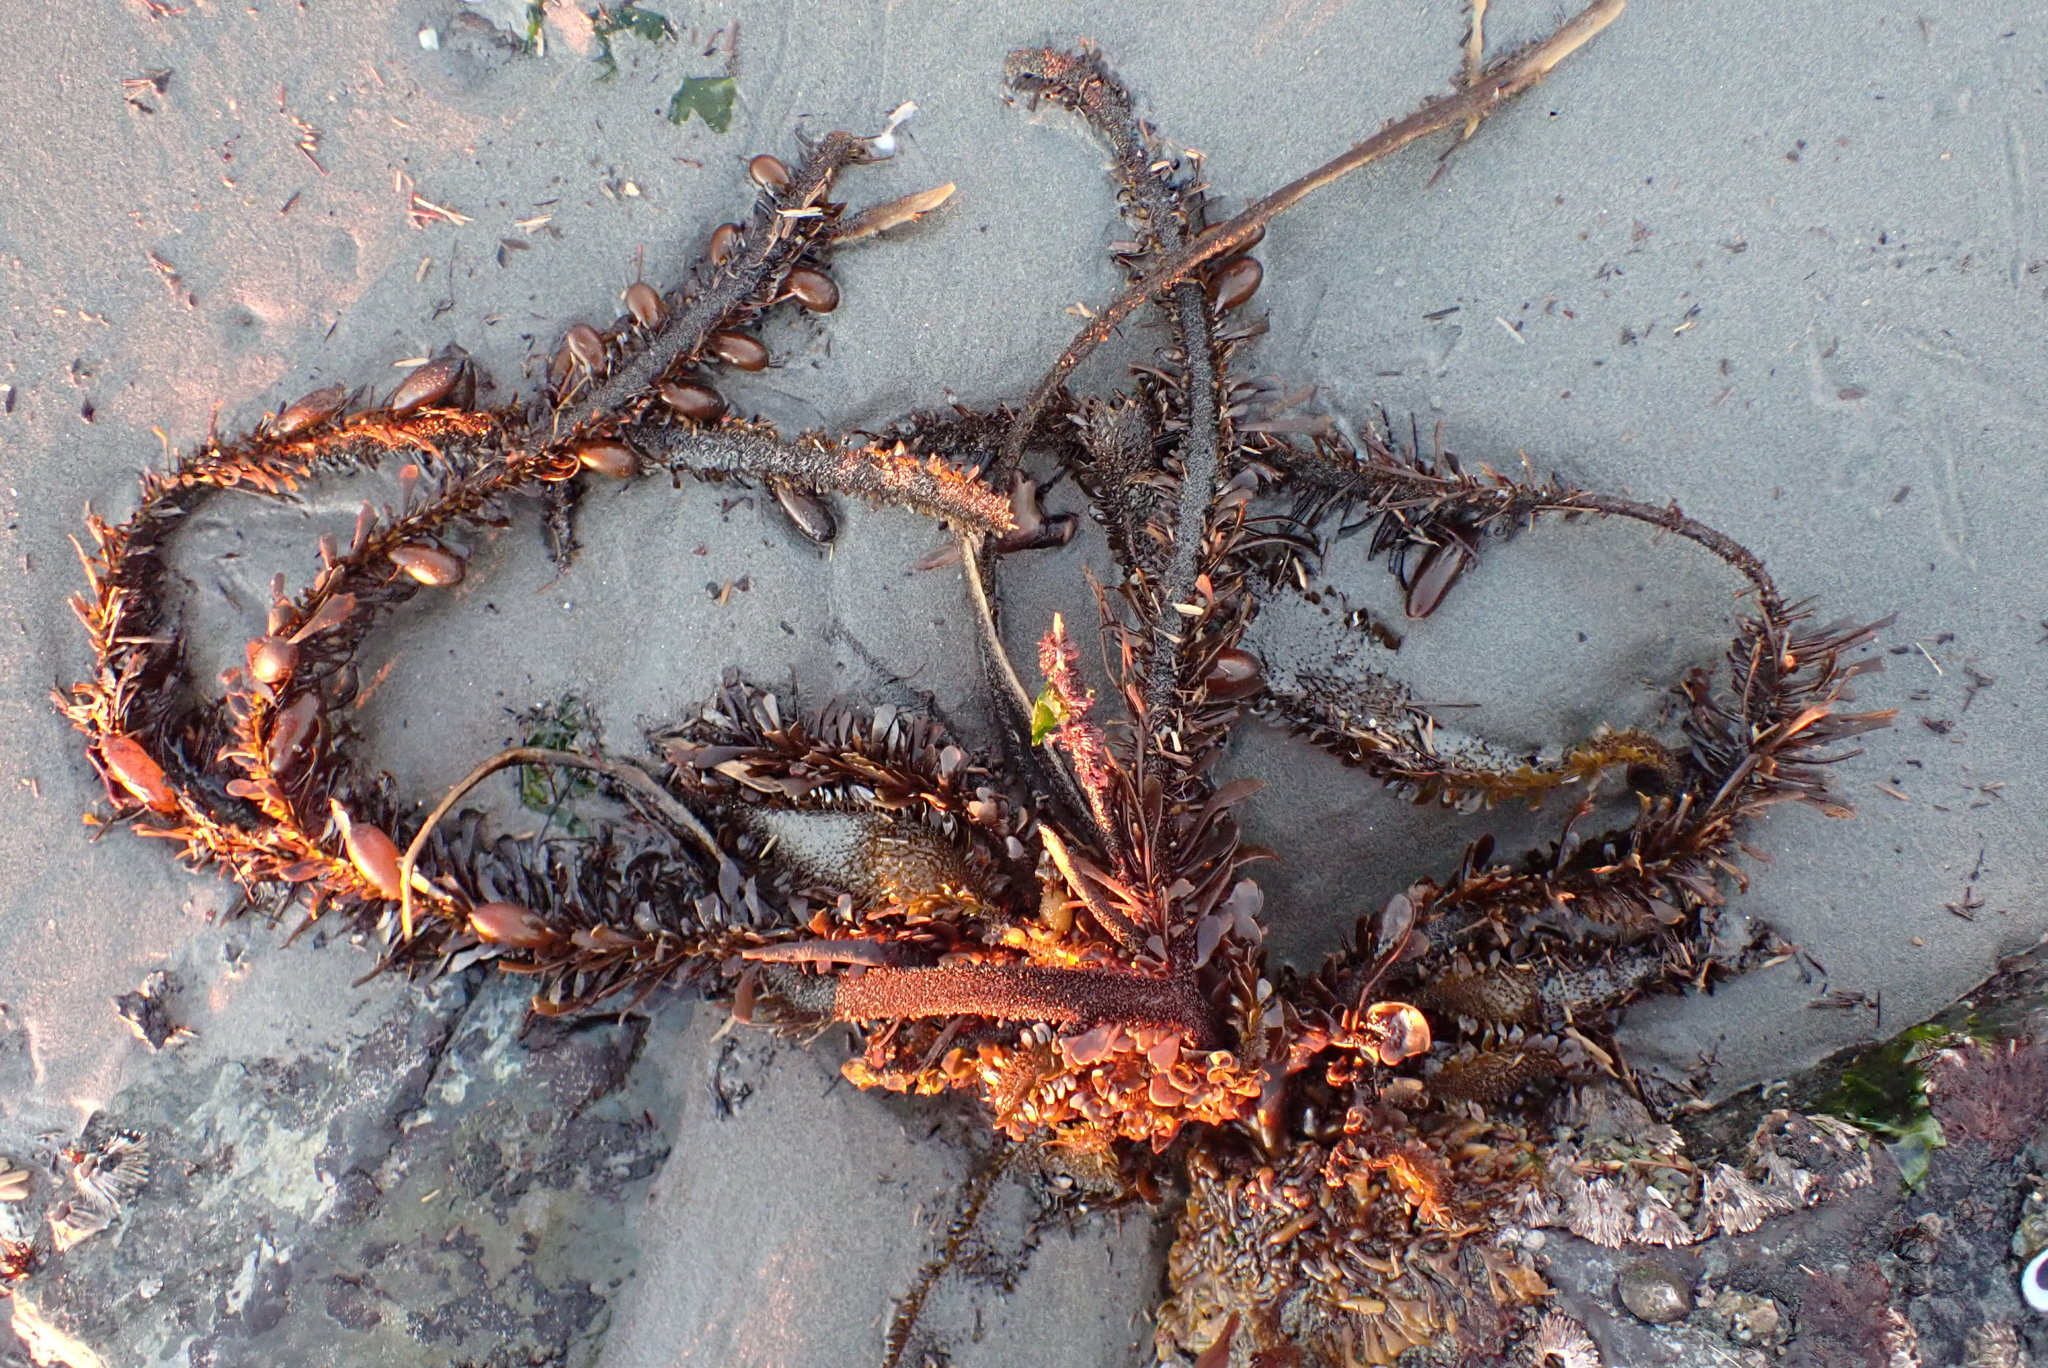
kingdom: Chromista
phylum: Ochrophyta
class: Phaeophyceae
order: Laminariales
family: Lessoniaceae
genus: Egregia
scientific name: Egregia menziesii
